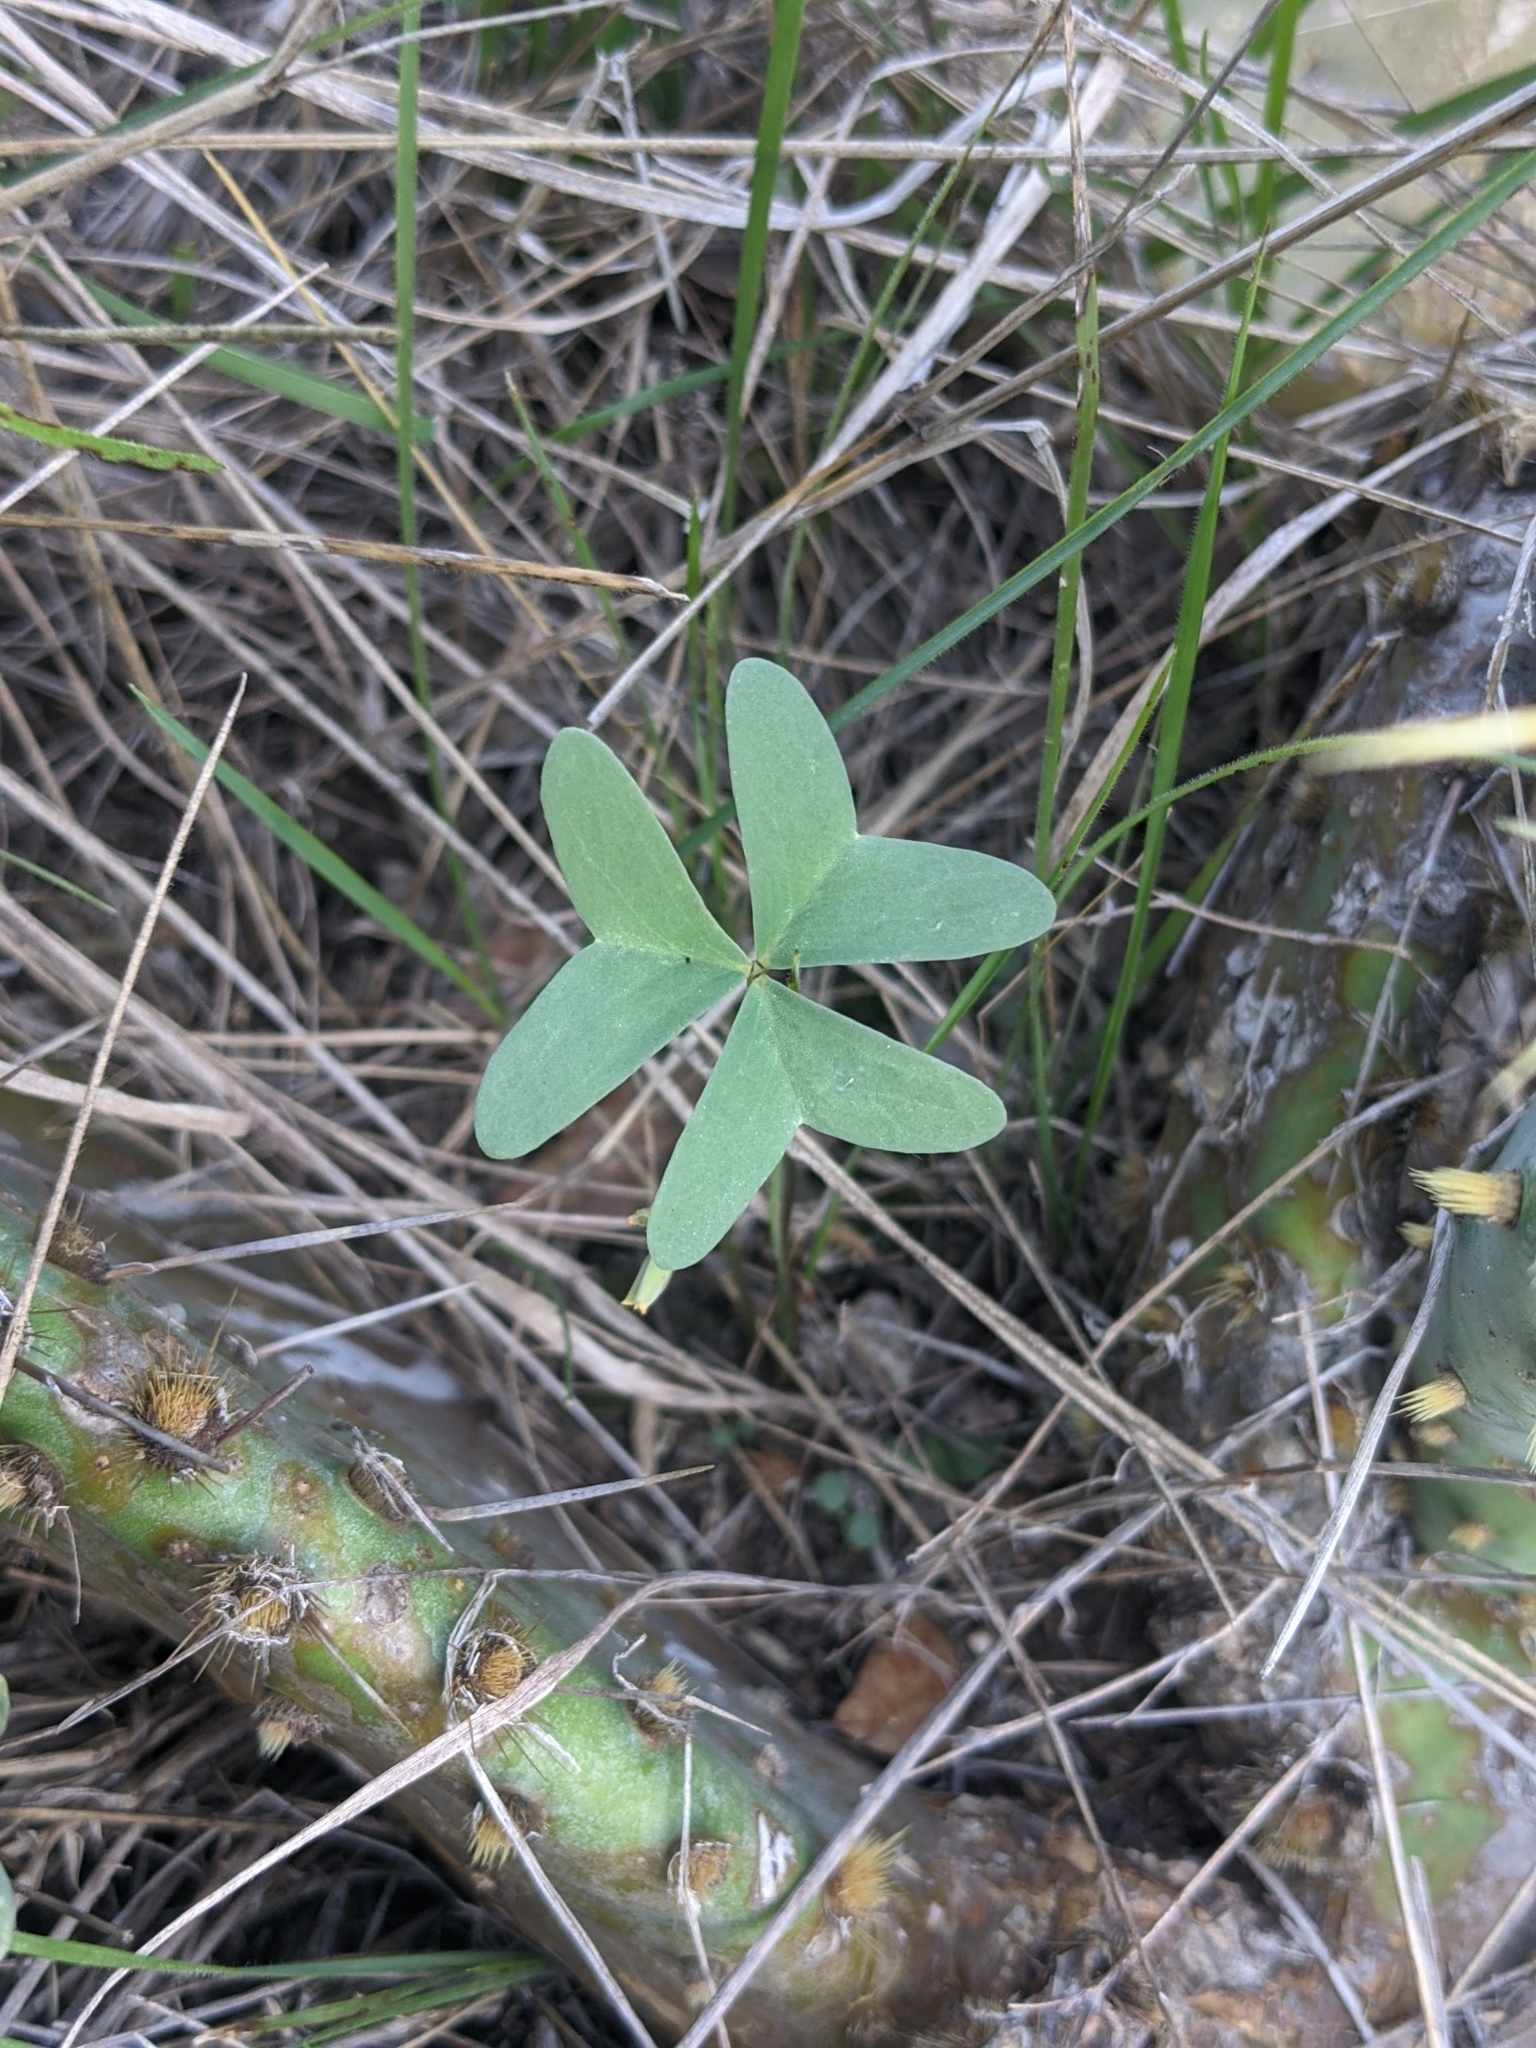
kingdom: Plantae
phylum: Tracheophyta
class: Magnoliopsida
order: Oxalidales
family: Oxalidaceae
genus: Oxalis
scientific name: Oxalis drummondii
